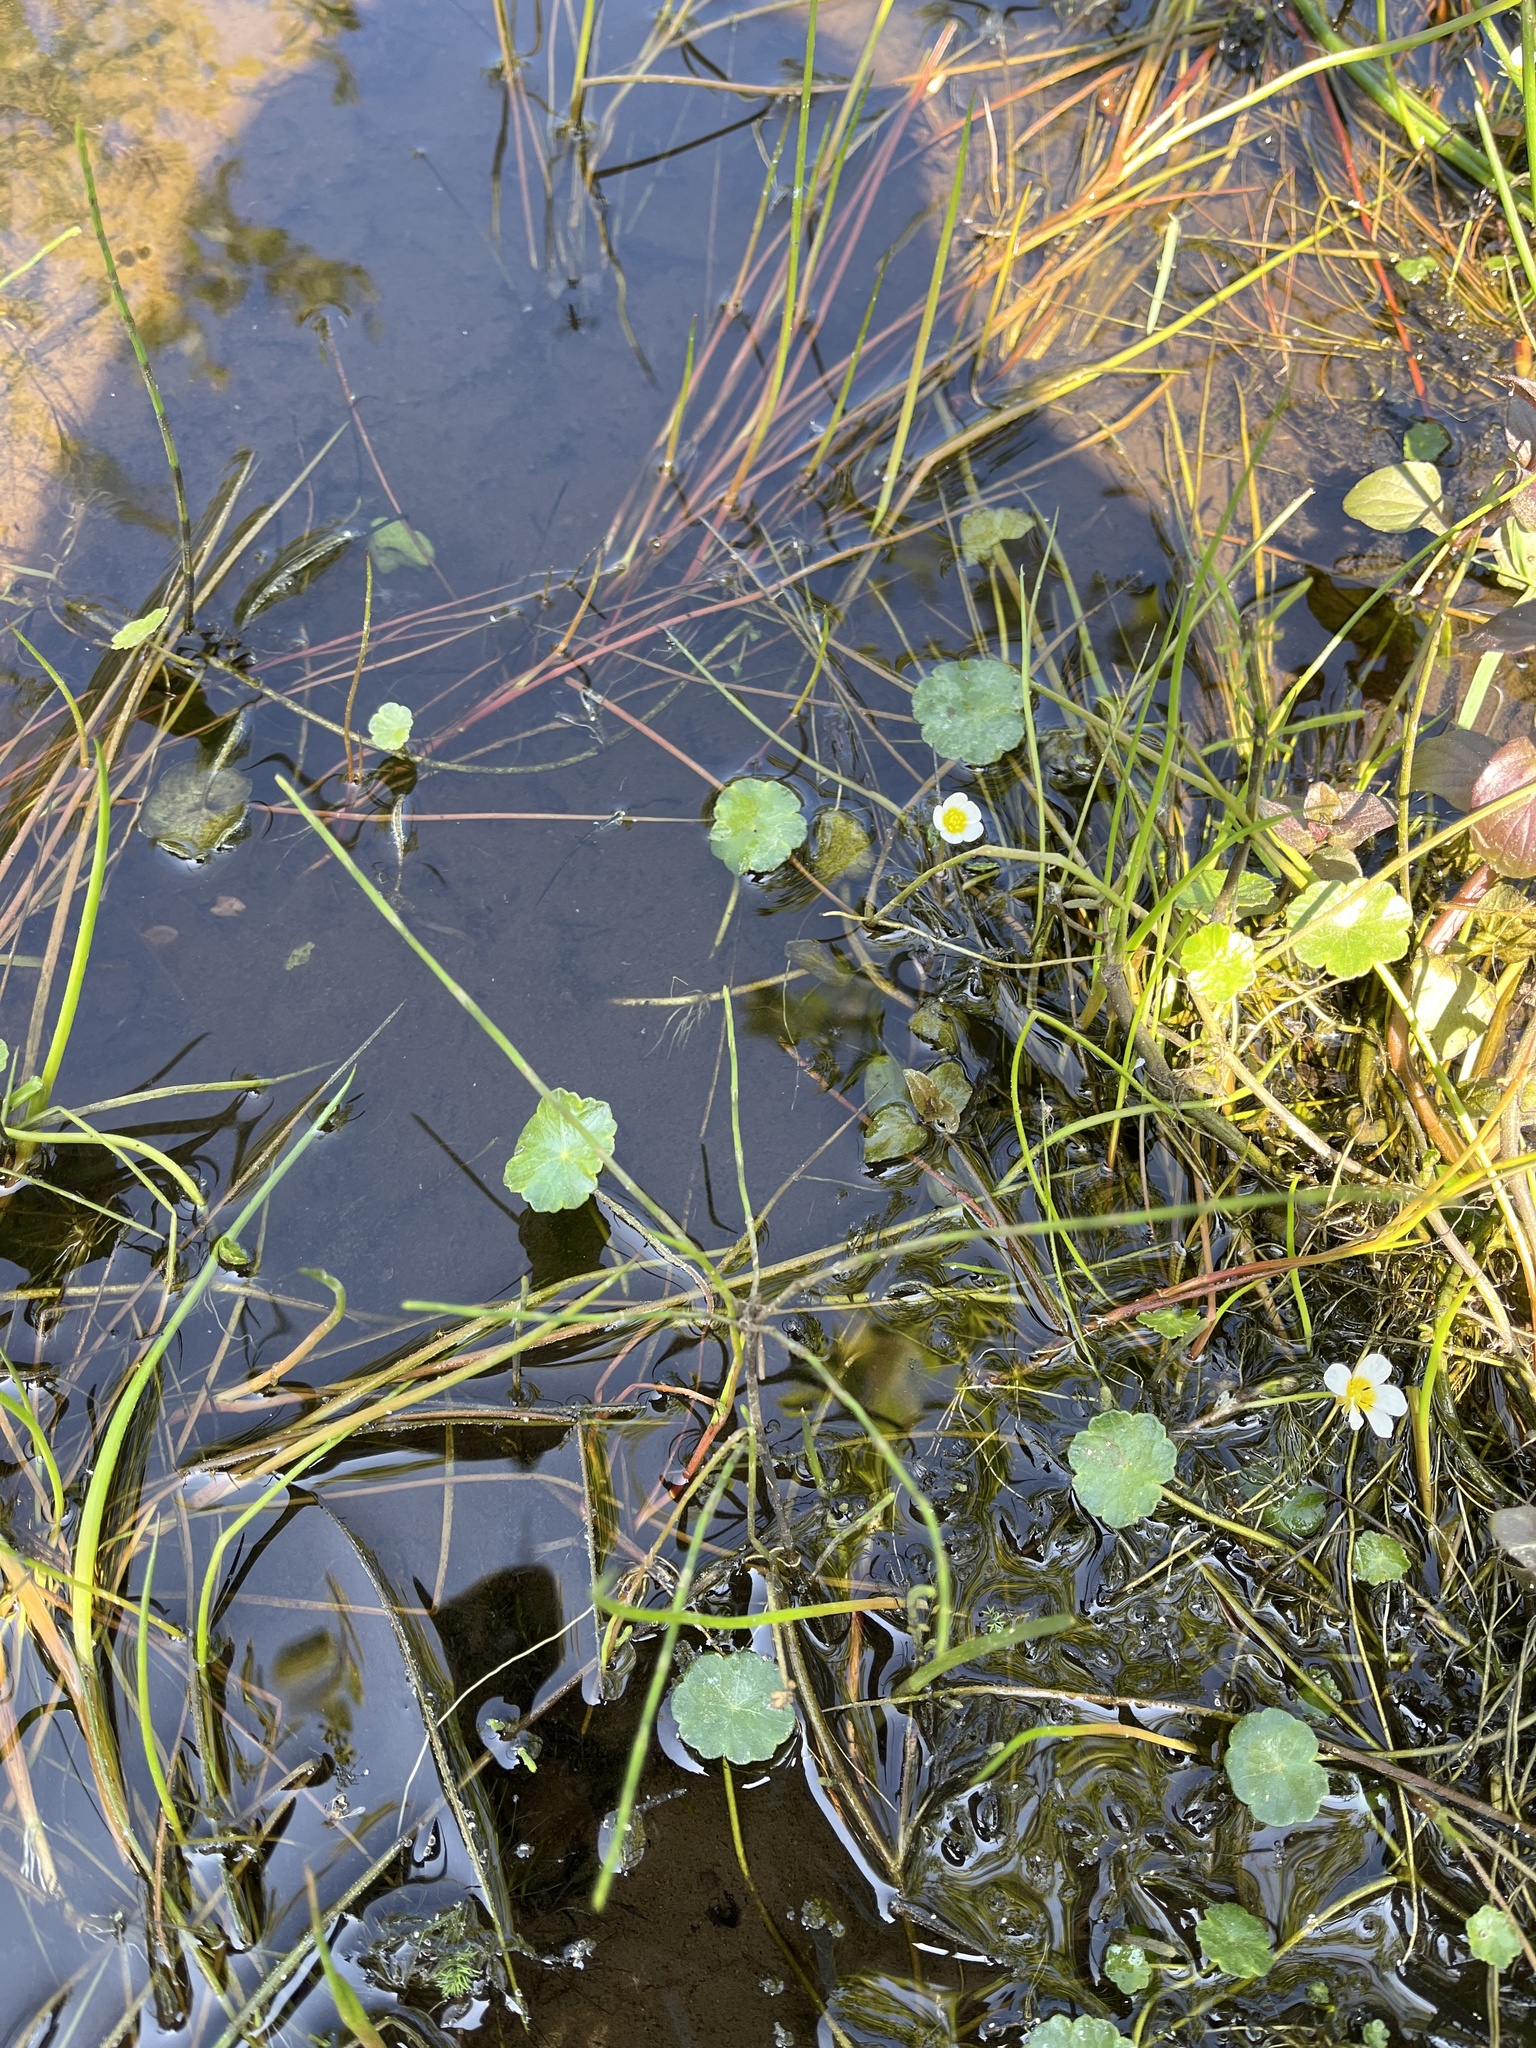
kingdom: Plantae
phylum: Tracheophyta
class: Magnoliopsida
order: Apiales
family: Araliaceae
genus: Hydrocotyle
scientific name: Hydrocotyle vulgaris
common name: Marsh pennywort
